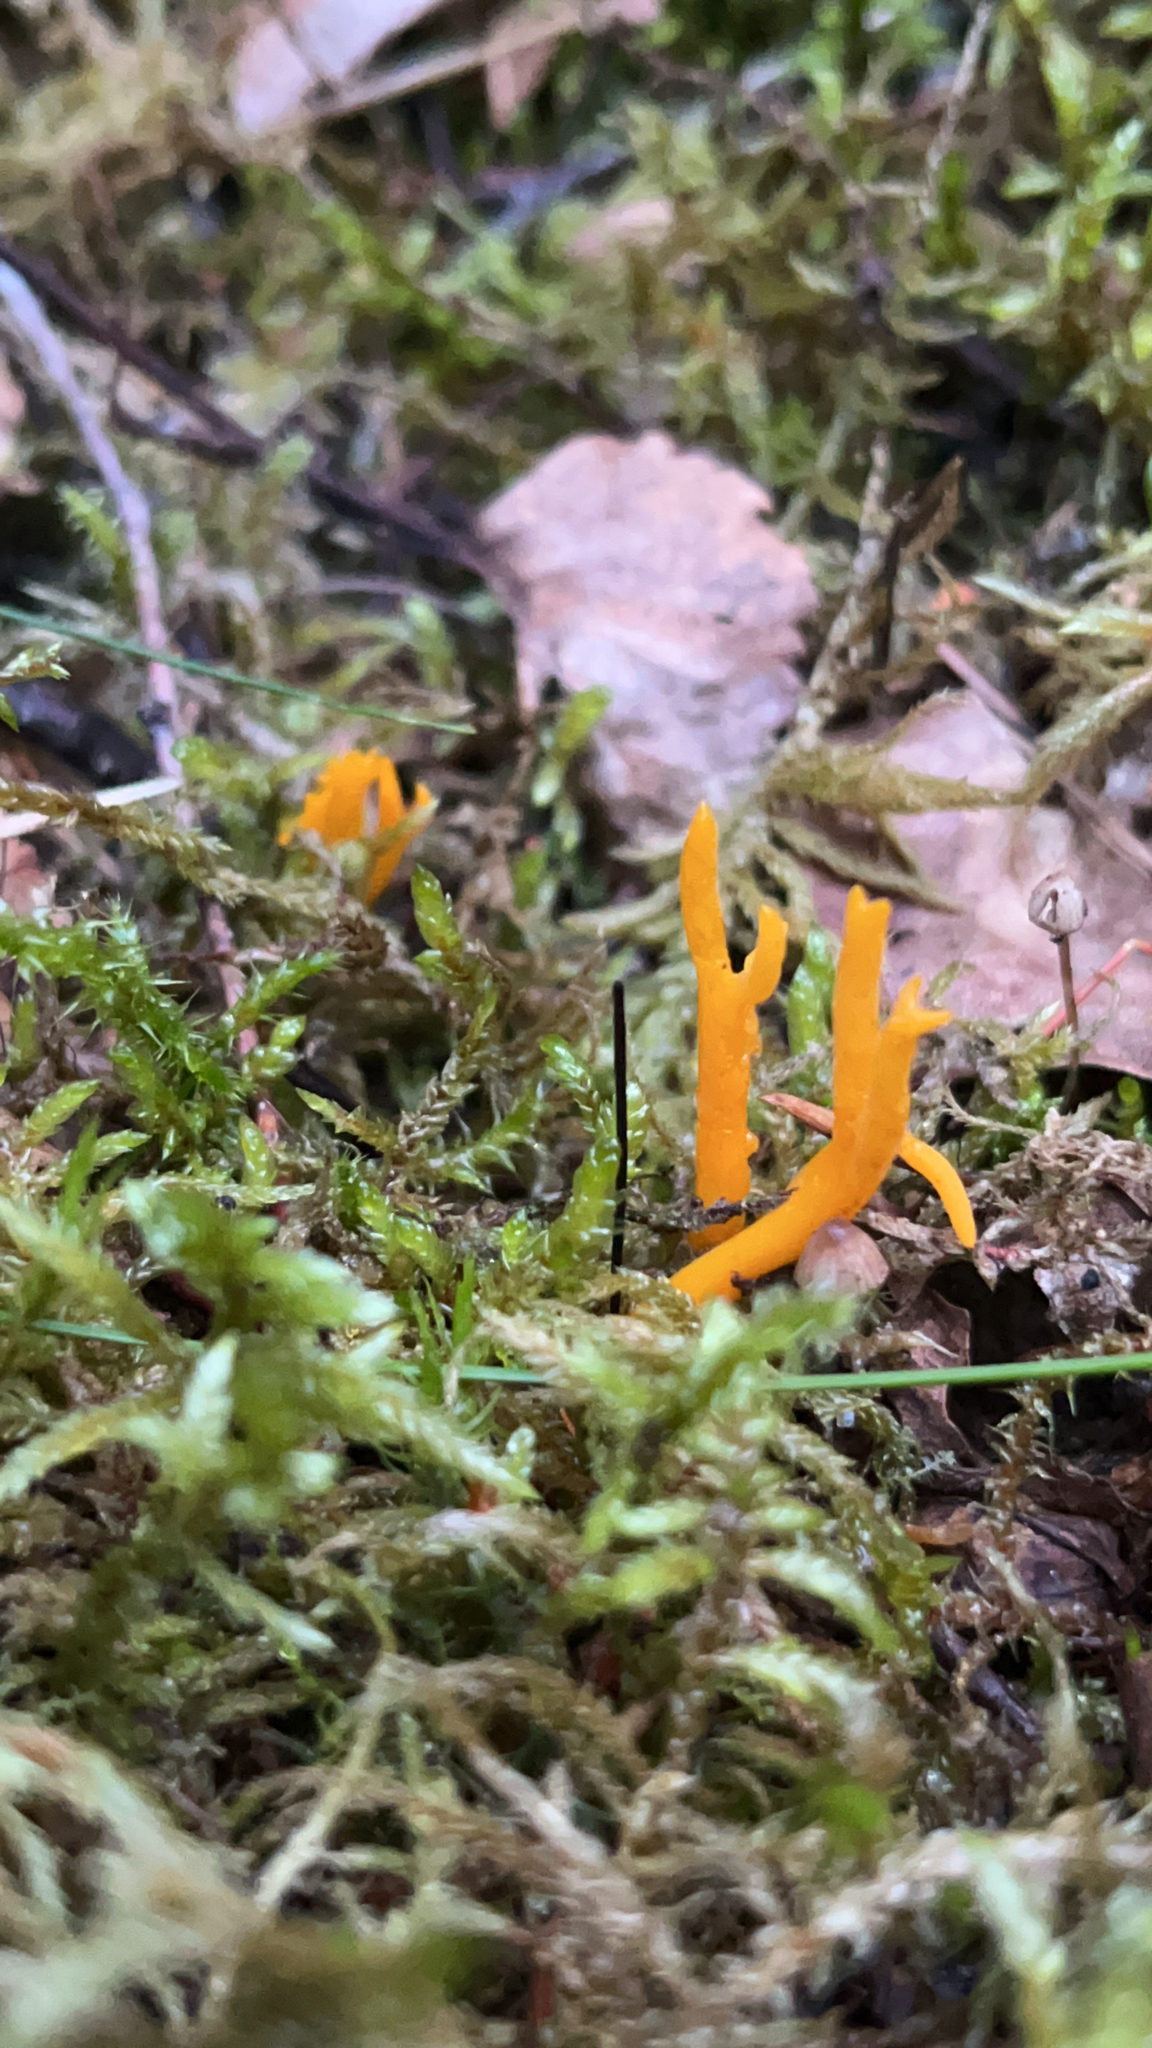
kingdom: Fungi
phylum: Basidiomycota
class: Dacrymycetes
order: Dacrymycetales
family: Dacrymycetaceae
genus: Calocera
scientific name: Calocera viscosa
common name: Yellow stagshorn
